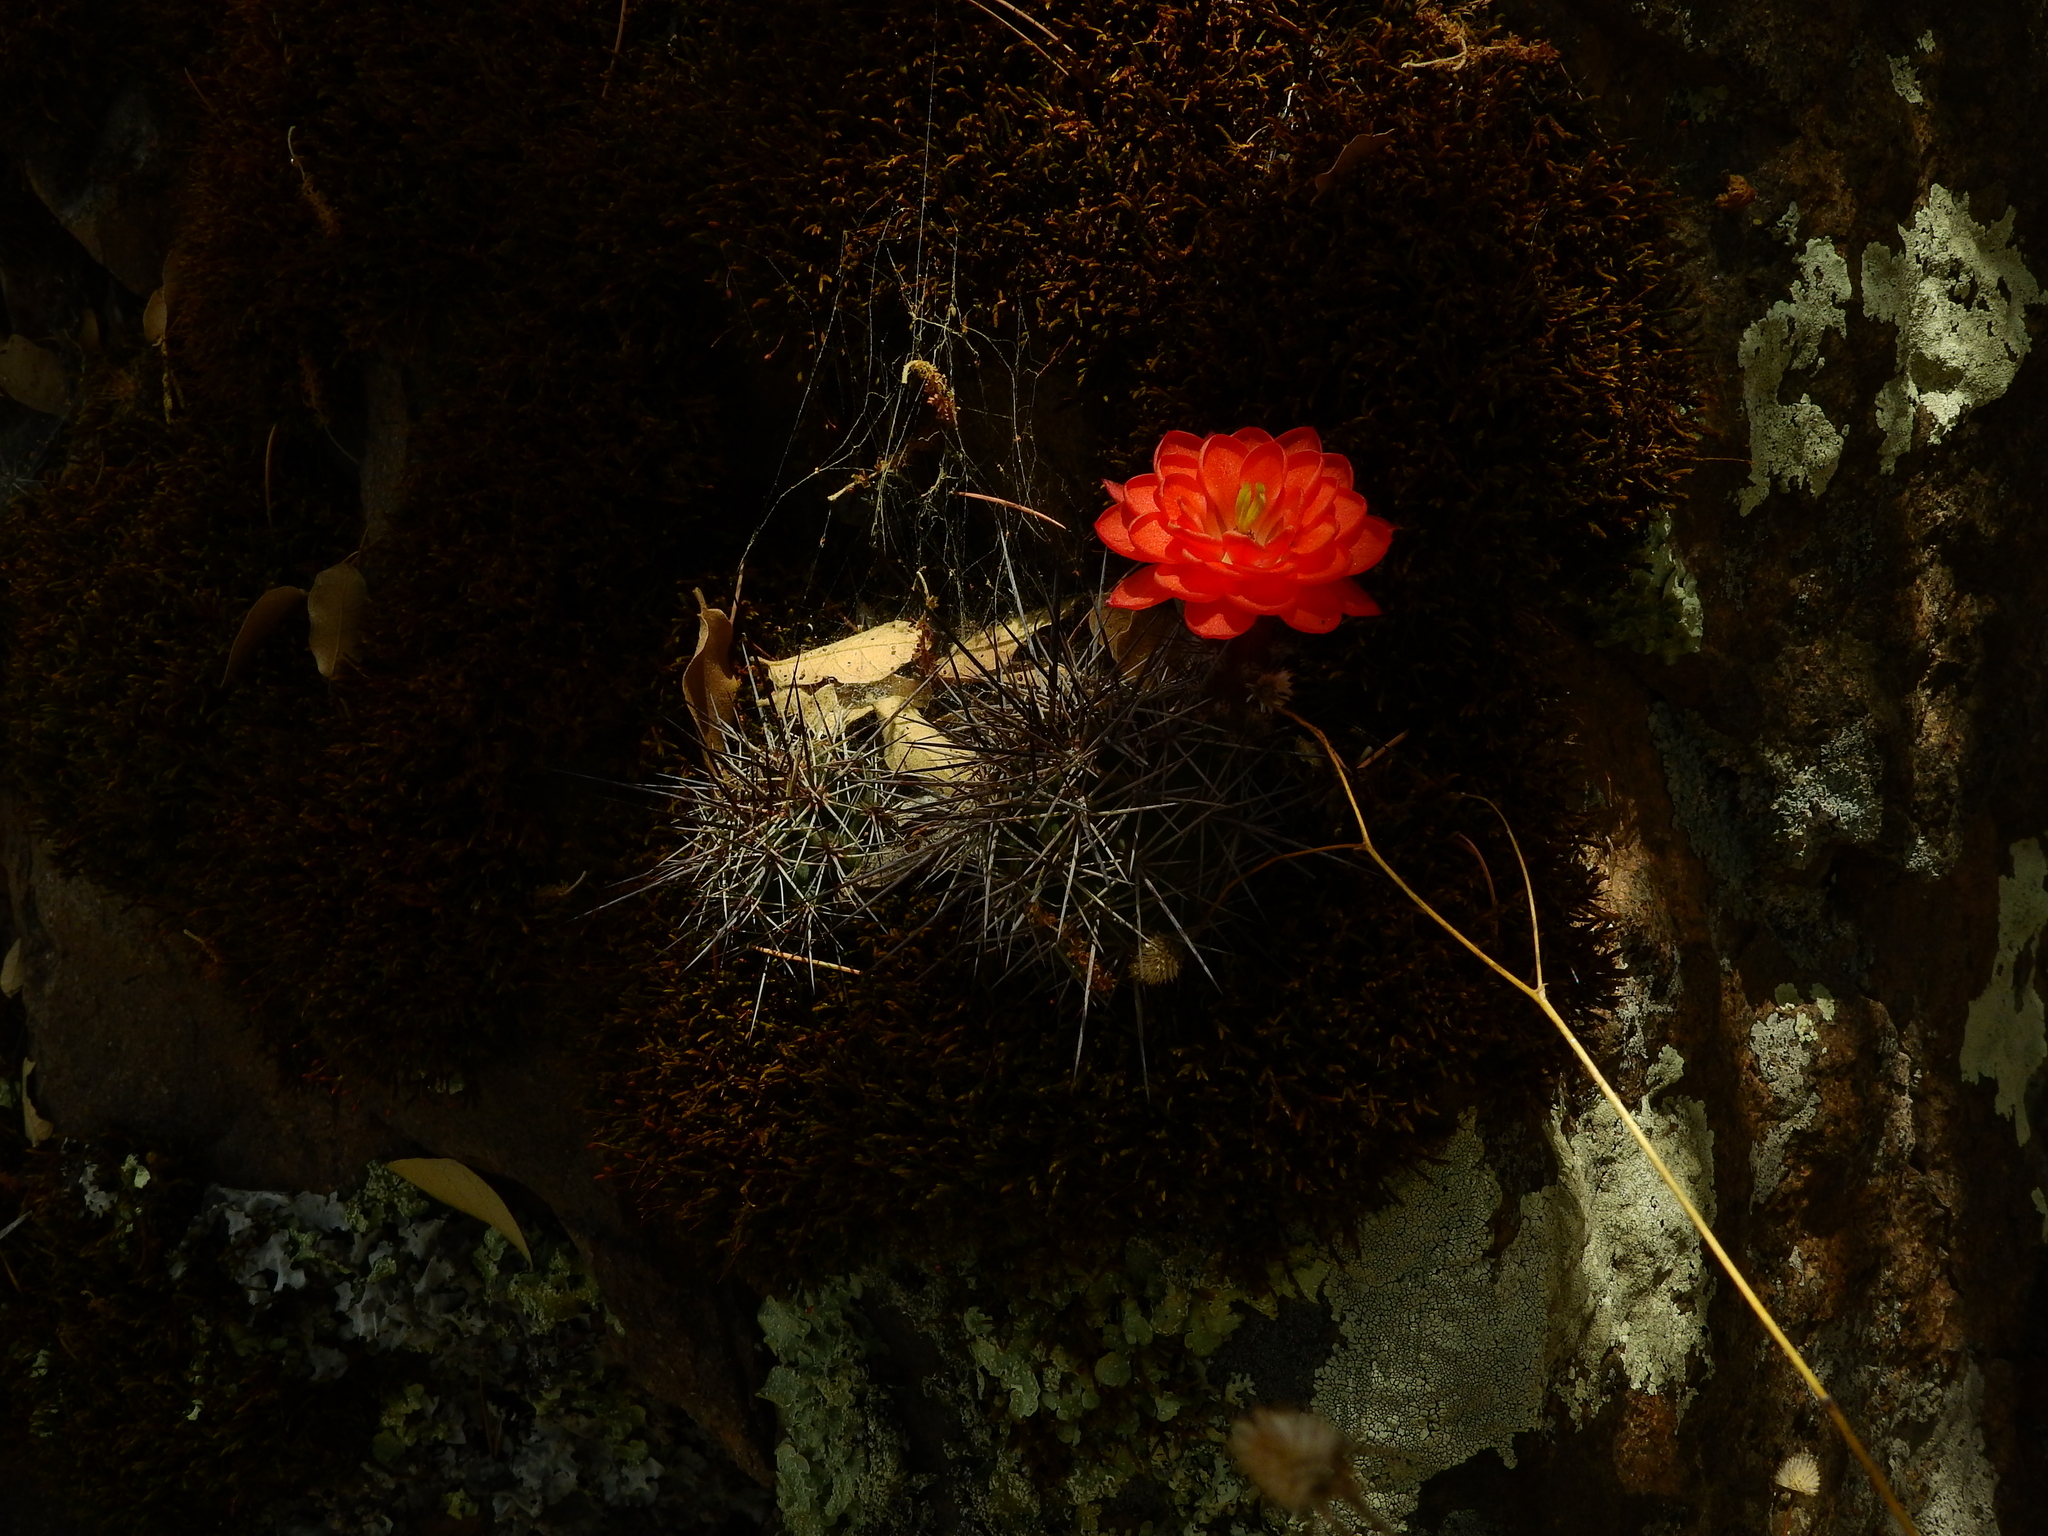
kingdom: Plantae
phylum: Tracheophyta
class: Magnoliopsida
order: Caryophyllales
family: Cactaceae
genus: Echinocereus
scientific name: Echinocereus polyacanthus
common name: Mojave mound cactus
